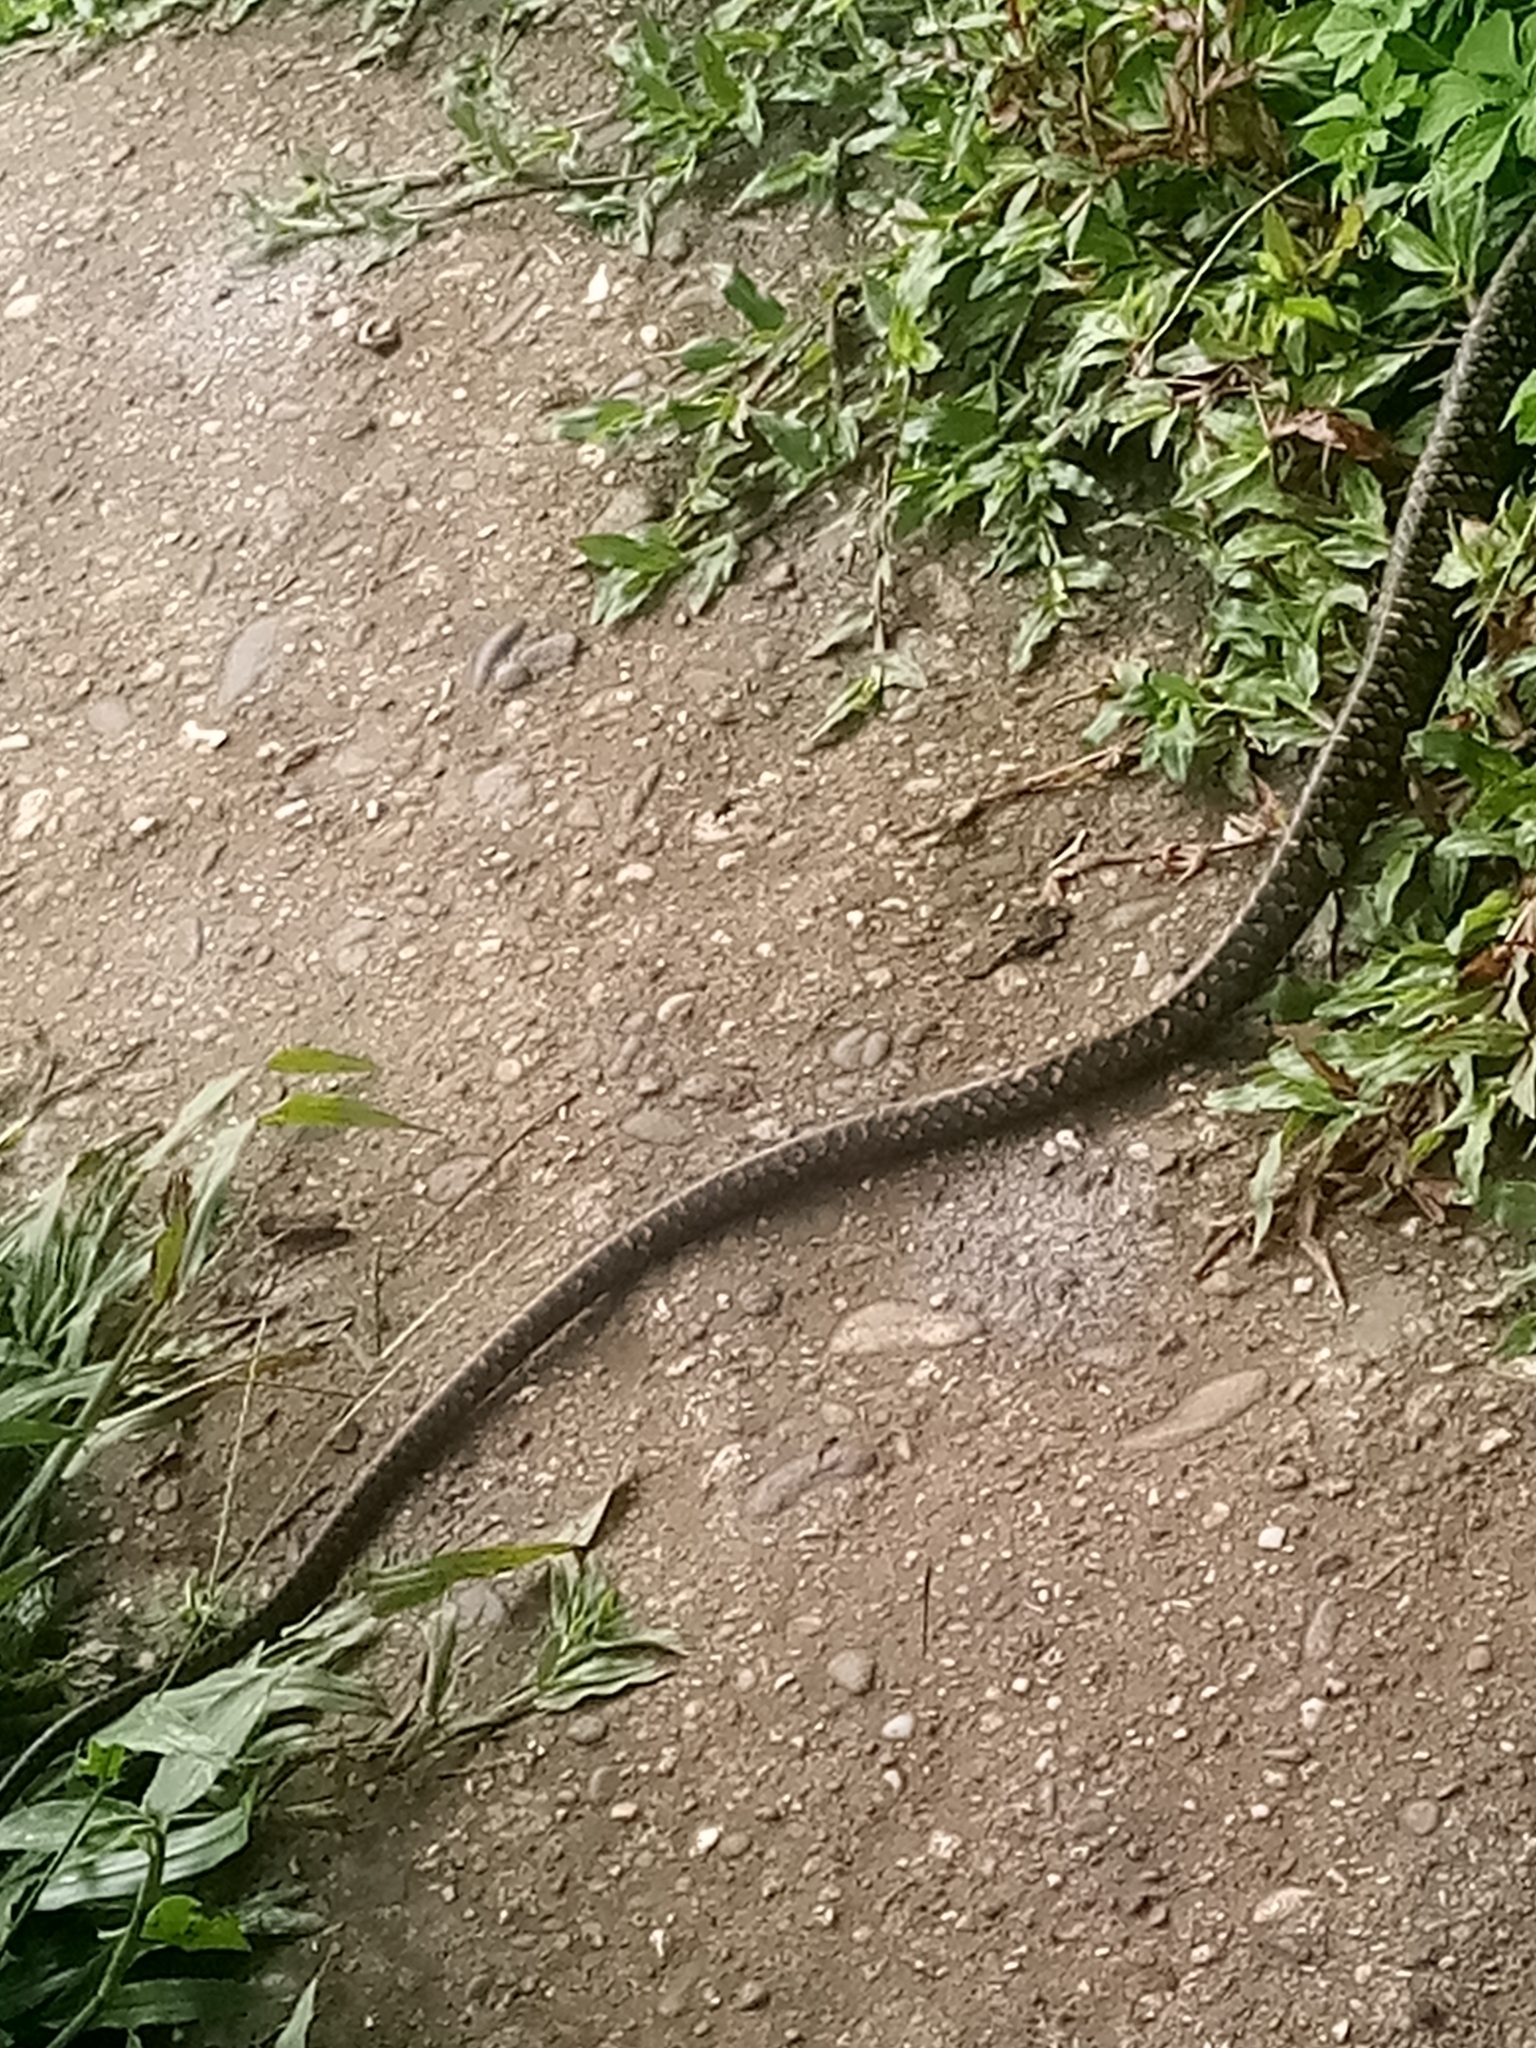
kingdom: Animalia
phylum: Chordata
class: Squamata
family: Colubridae
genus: Spilotes
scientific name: Spilotes pullatus
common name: Chicken snake
